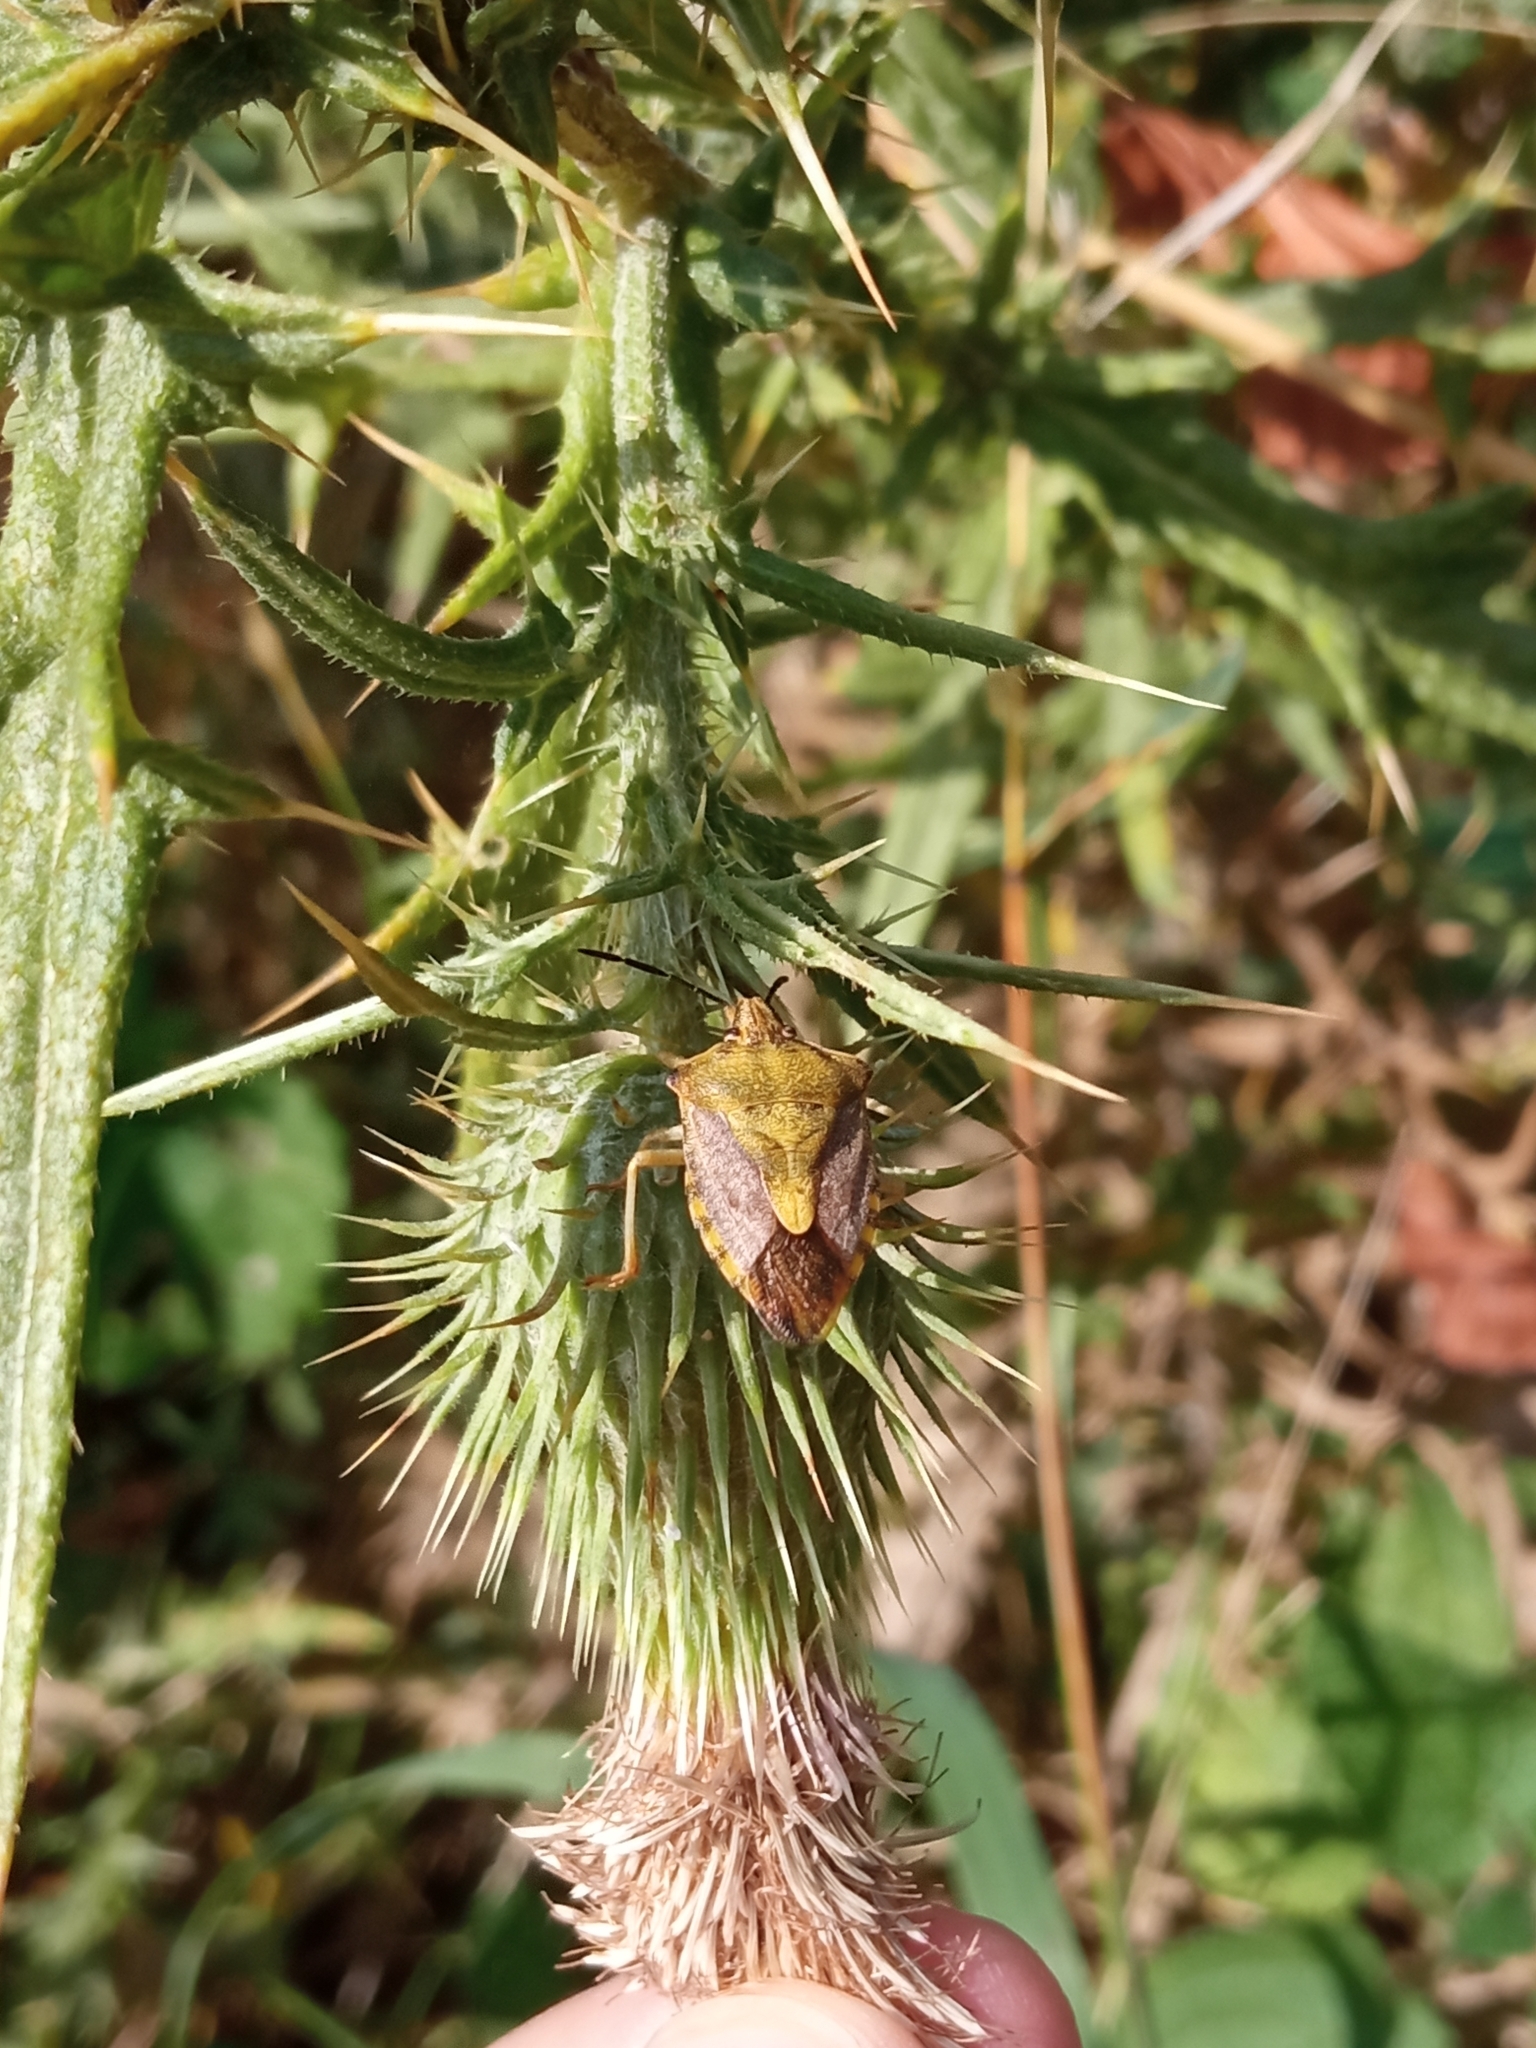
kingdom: Animalia
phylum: Arthropoda
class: Insecta
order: Hemiptera
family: Pentatomidae
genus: Carpocoris
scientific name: Carpocoris purpureipennis
